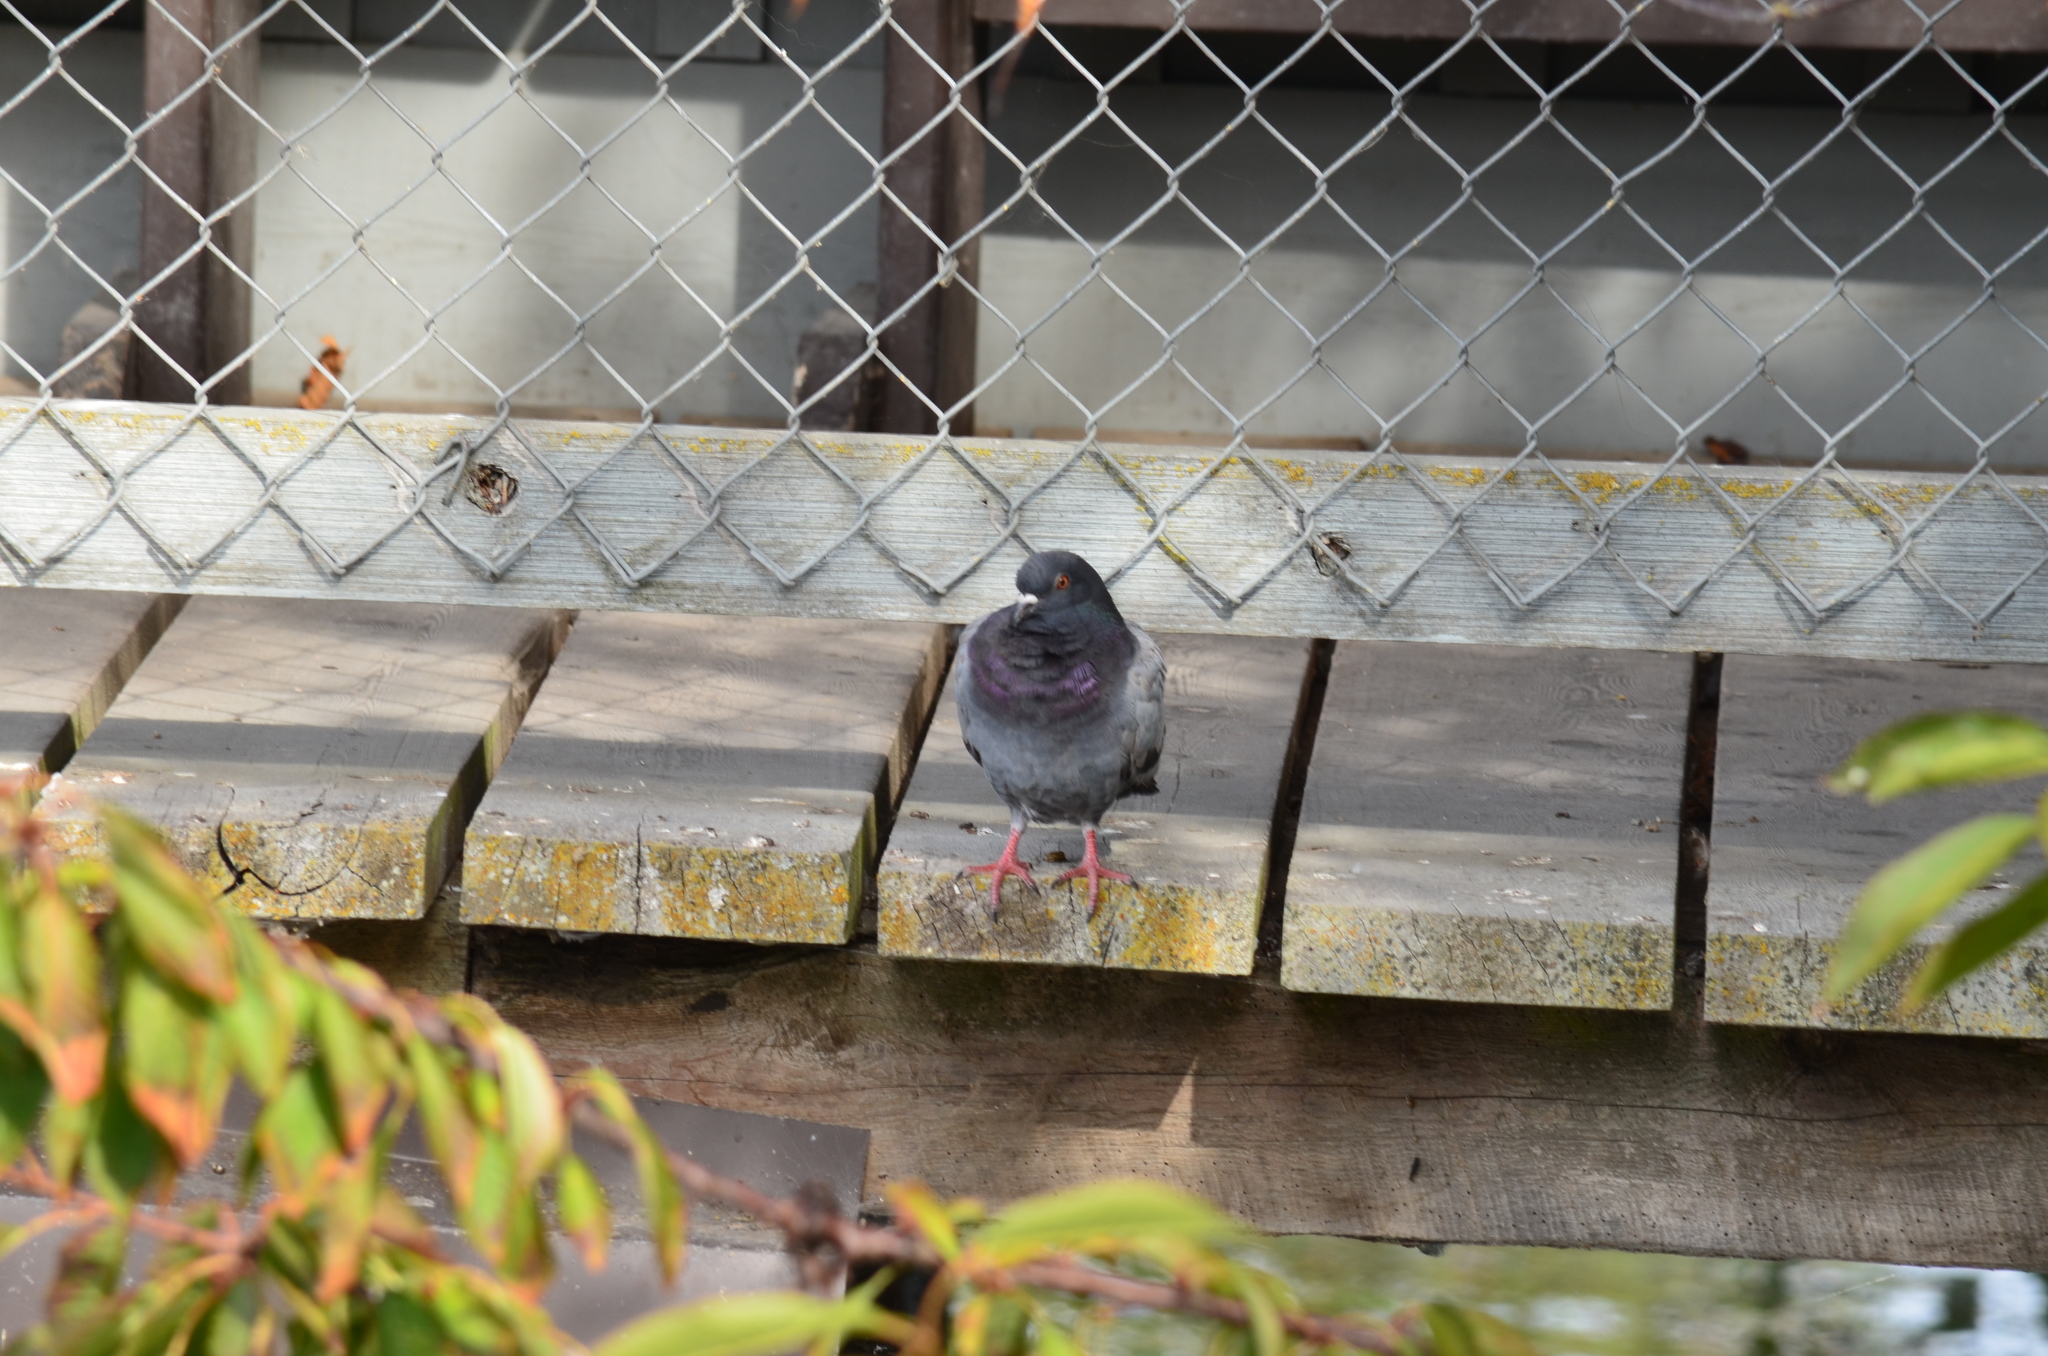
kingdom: Animalia
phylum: Chordata
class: Aves
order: Columbiformes
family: Columbidae
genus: Columba
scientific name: Columba livia
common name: Rock pigeon
